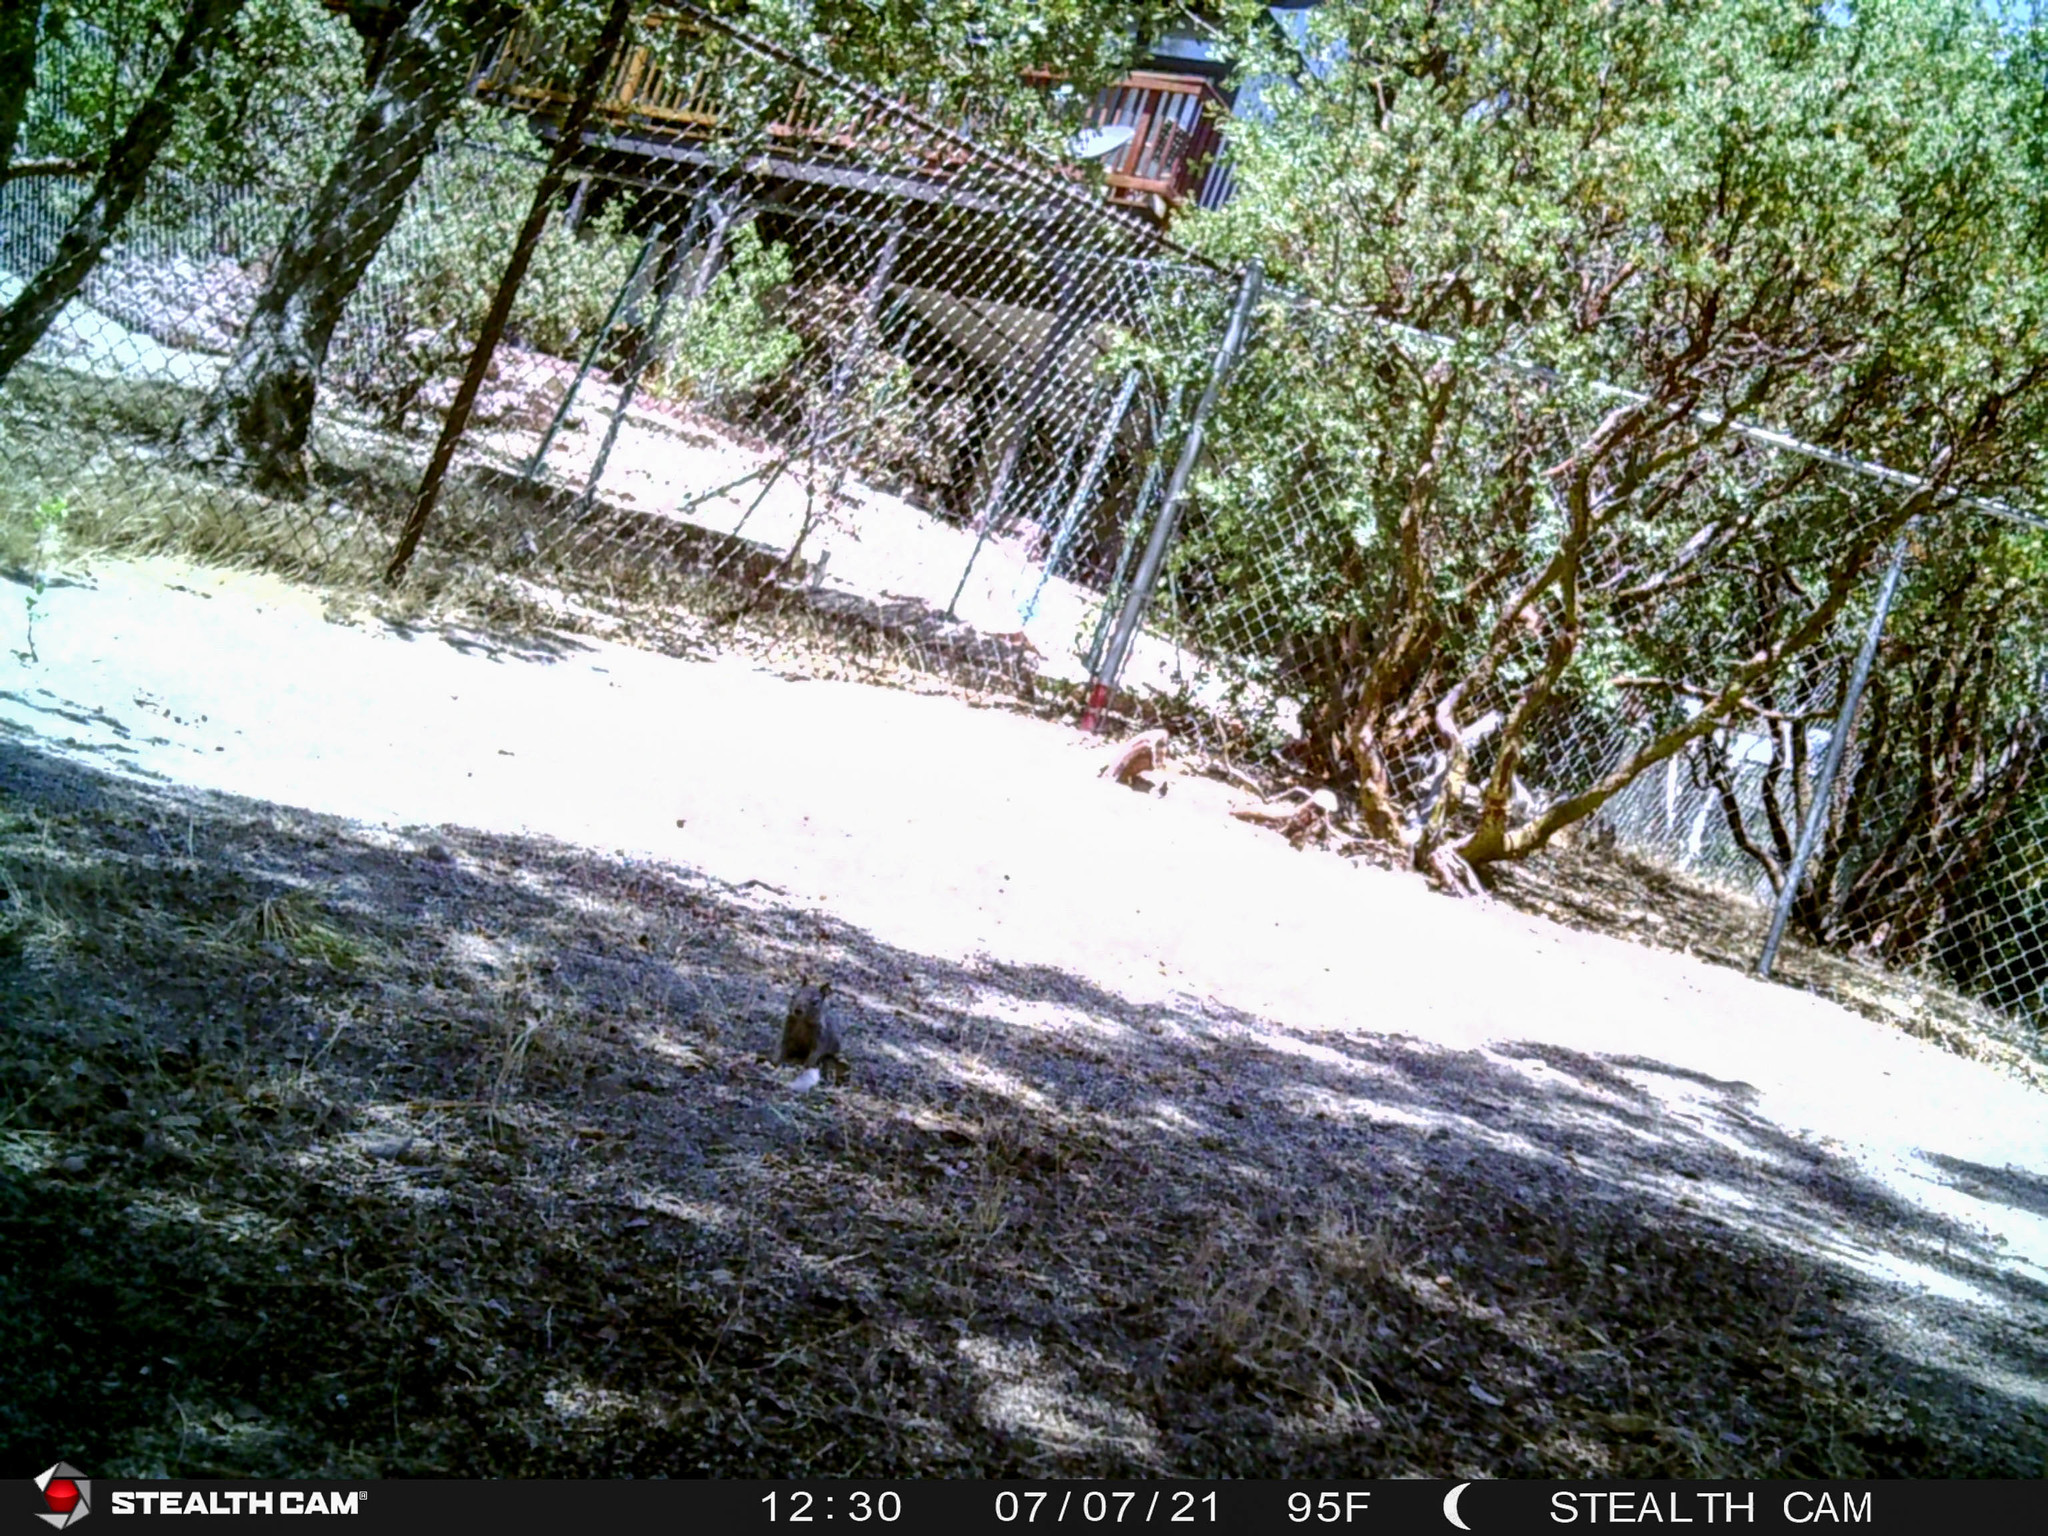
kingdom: Animalia
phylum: Chordata
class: Mammalia
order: Rodentia
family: Sciuridae
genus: Otospermophilus
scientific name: Otospermophilus beecheyi
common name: California ground squirrel
